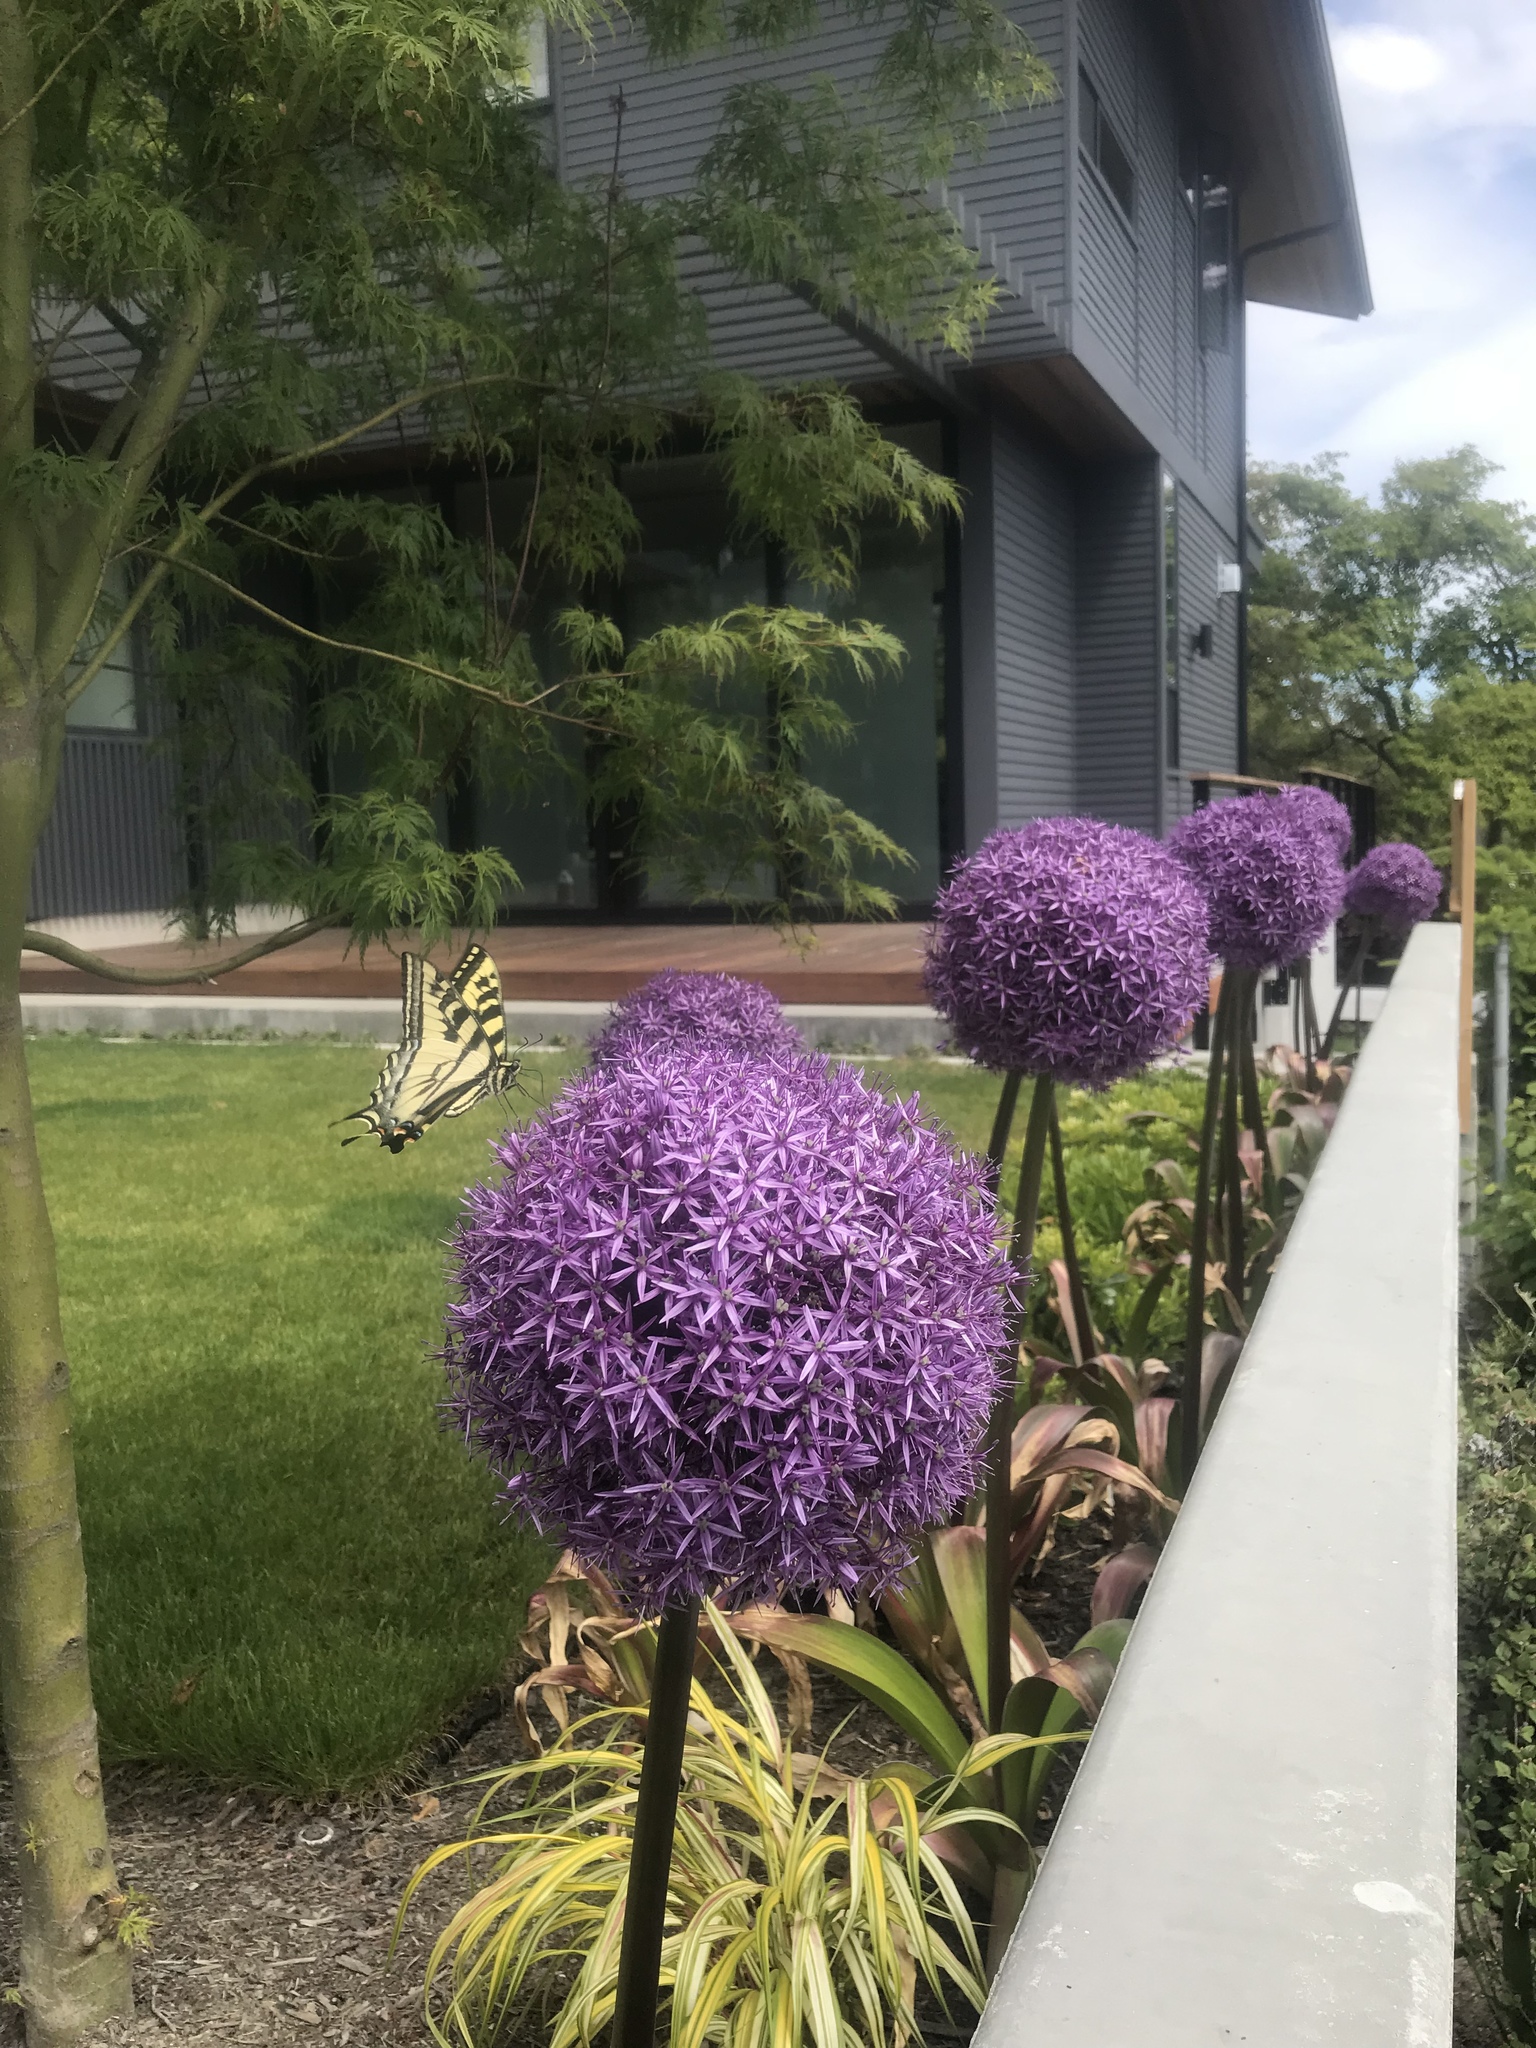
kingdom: Animalia
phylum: Arthropoda
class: Insecta
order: Lepidoptera
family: Papilionidae
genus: Papilio
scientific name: Papilio rutulus
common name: Western tiger swallowtail
